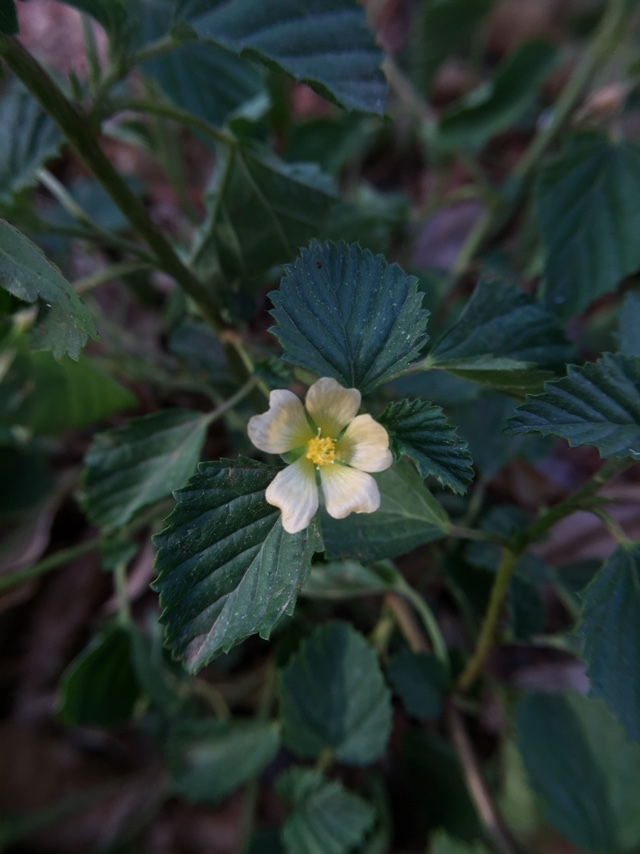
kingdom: Plantae
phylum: Tracheophyta
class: Magnoliopsida
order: Malvales
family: Malvaceae
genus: Malvastrum
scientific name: Malvastrum coromandelianum
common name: Threelobe false mallow
